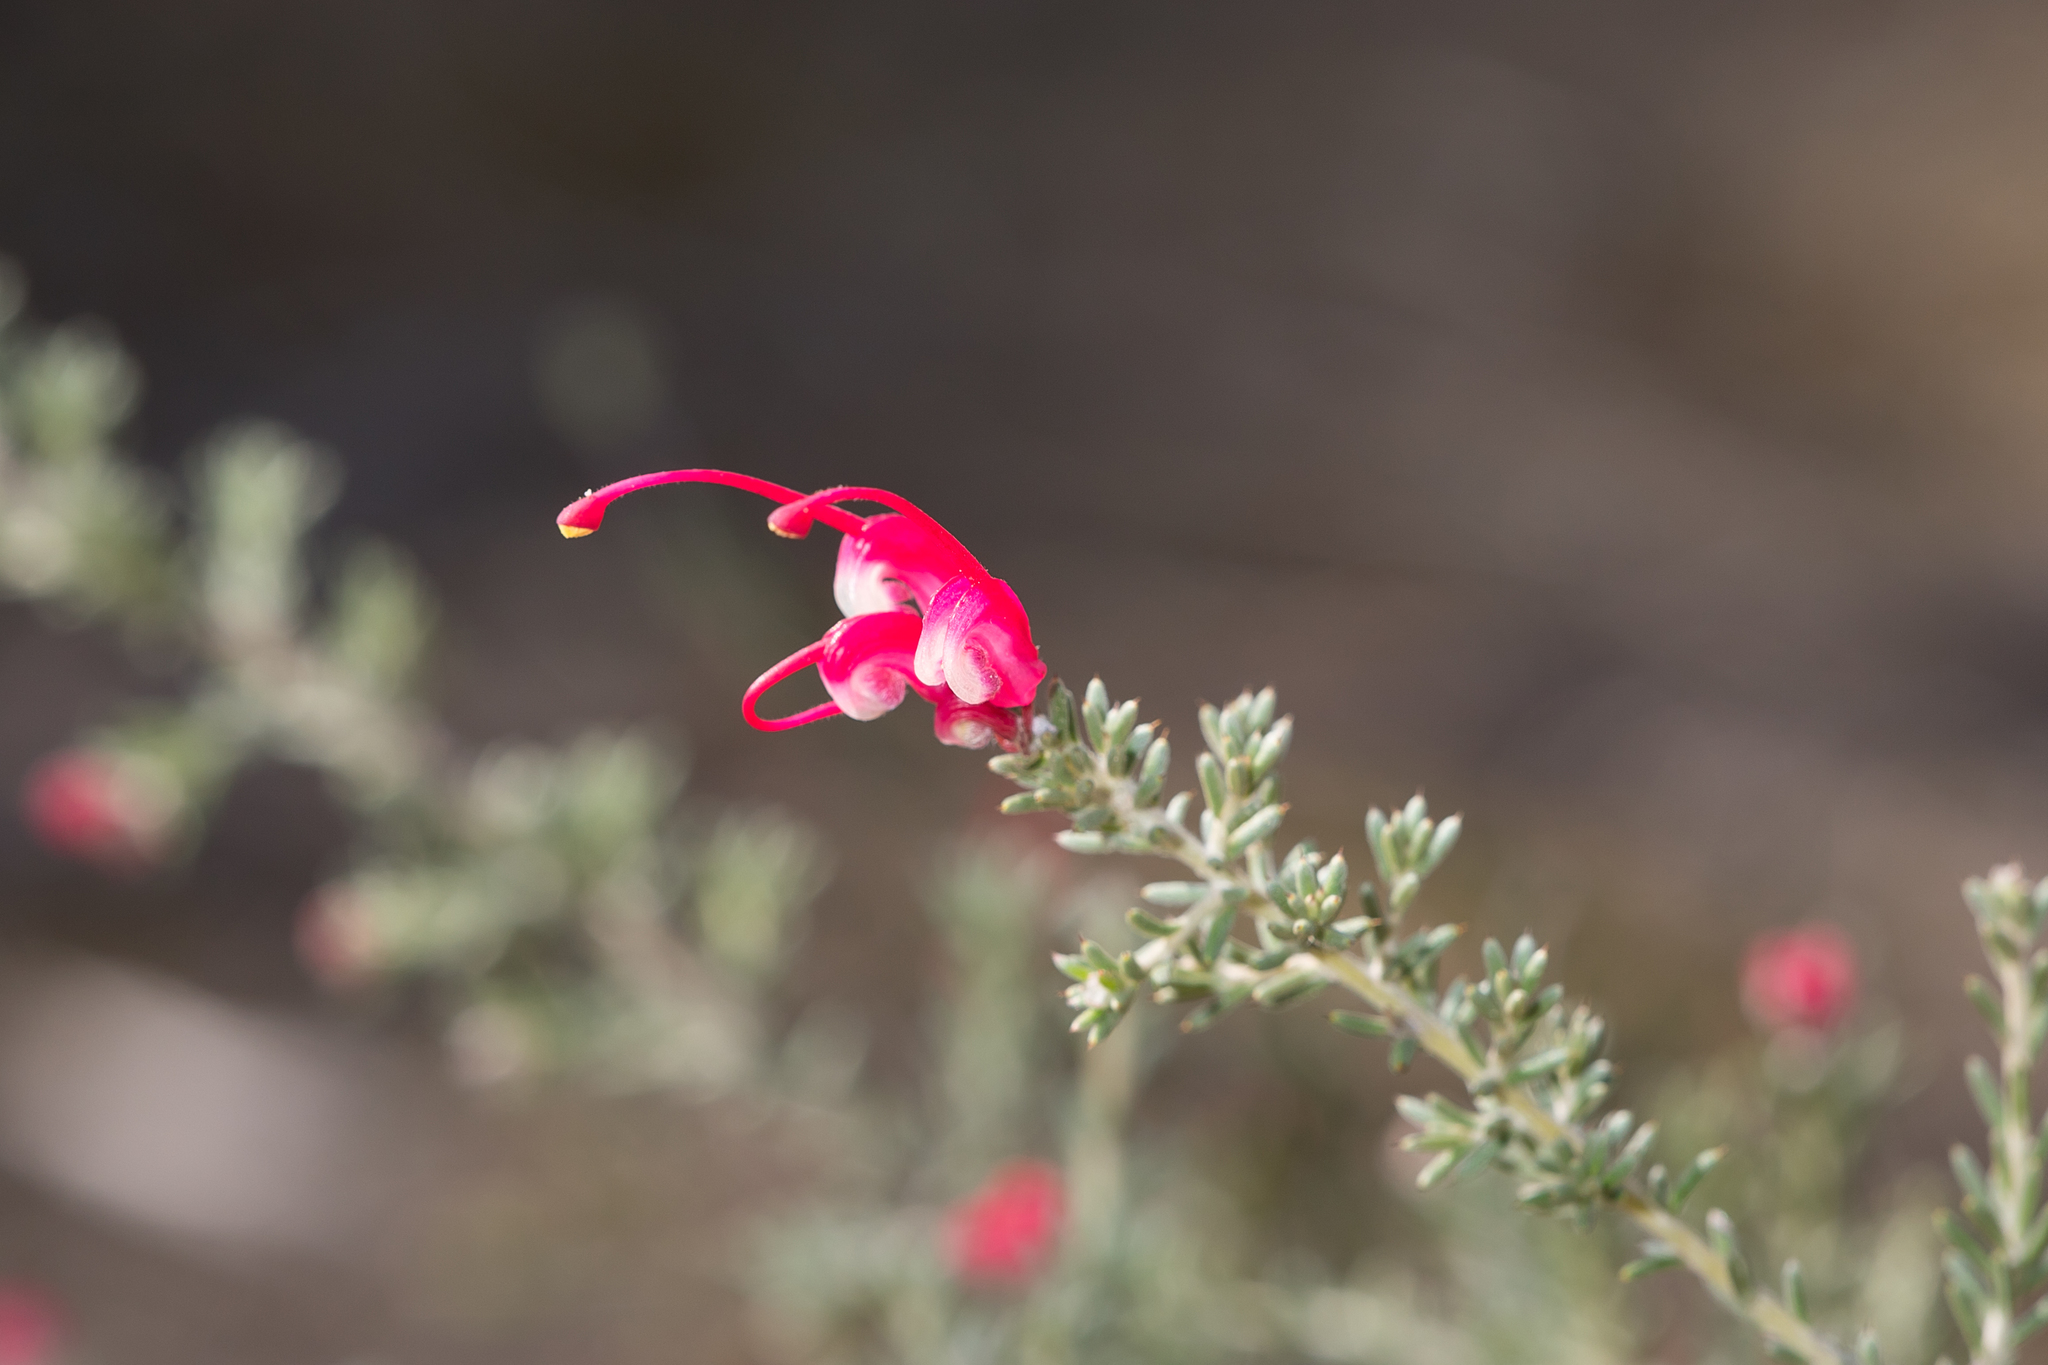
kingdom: Plantae
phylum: Tracheophyta
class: Magnoliopsida
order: Proteales
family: Proteaceae
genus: Grevillea
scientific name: Grevillea lavandulacea
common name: Lavender grevillea
